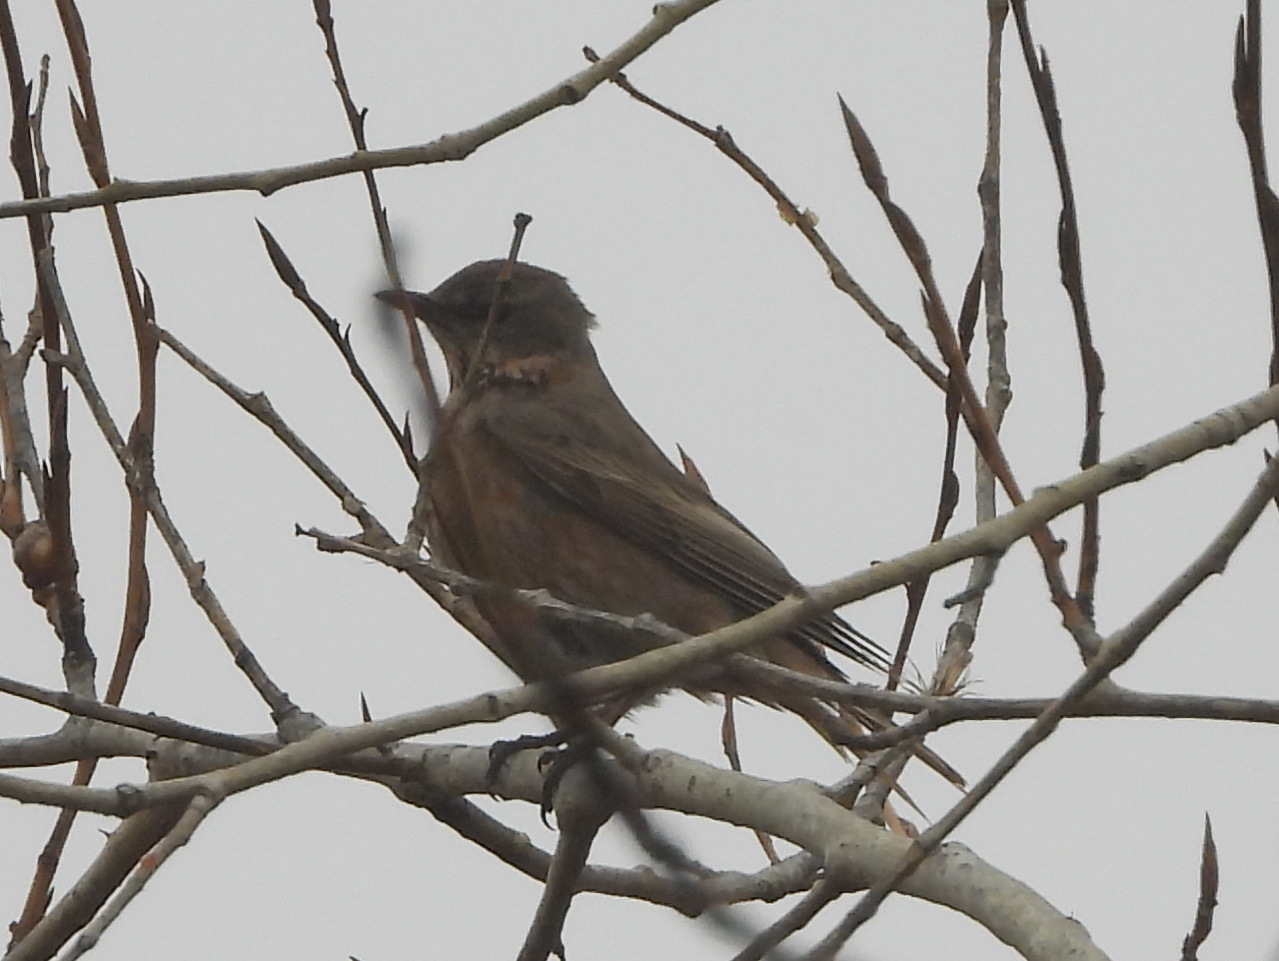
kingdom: Animalia
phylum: Chordata
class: Aves
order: Passeriformes
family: Turdidae
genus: Turdus
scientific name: Turdus naumanni
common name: Naumann's thrush
